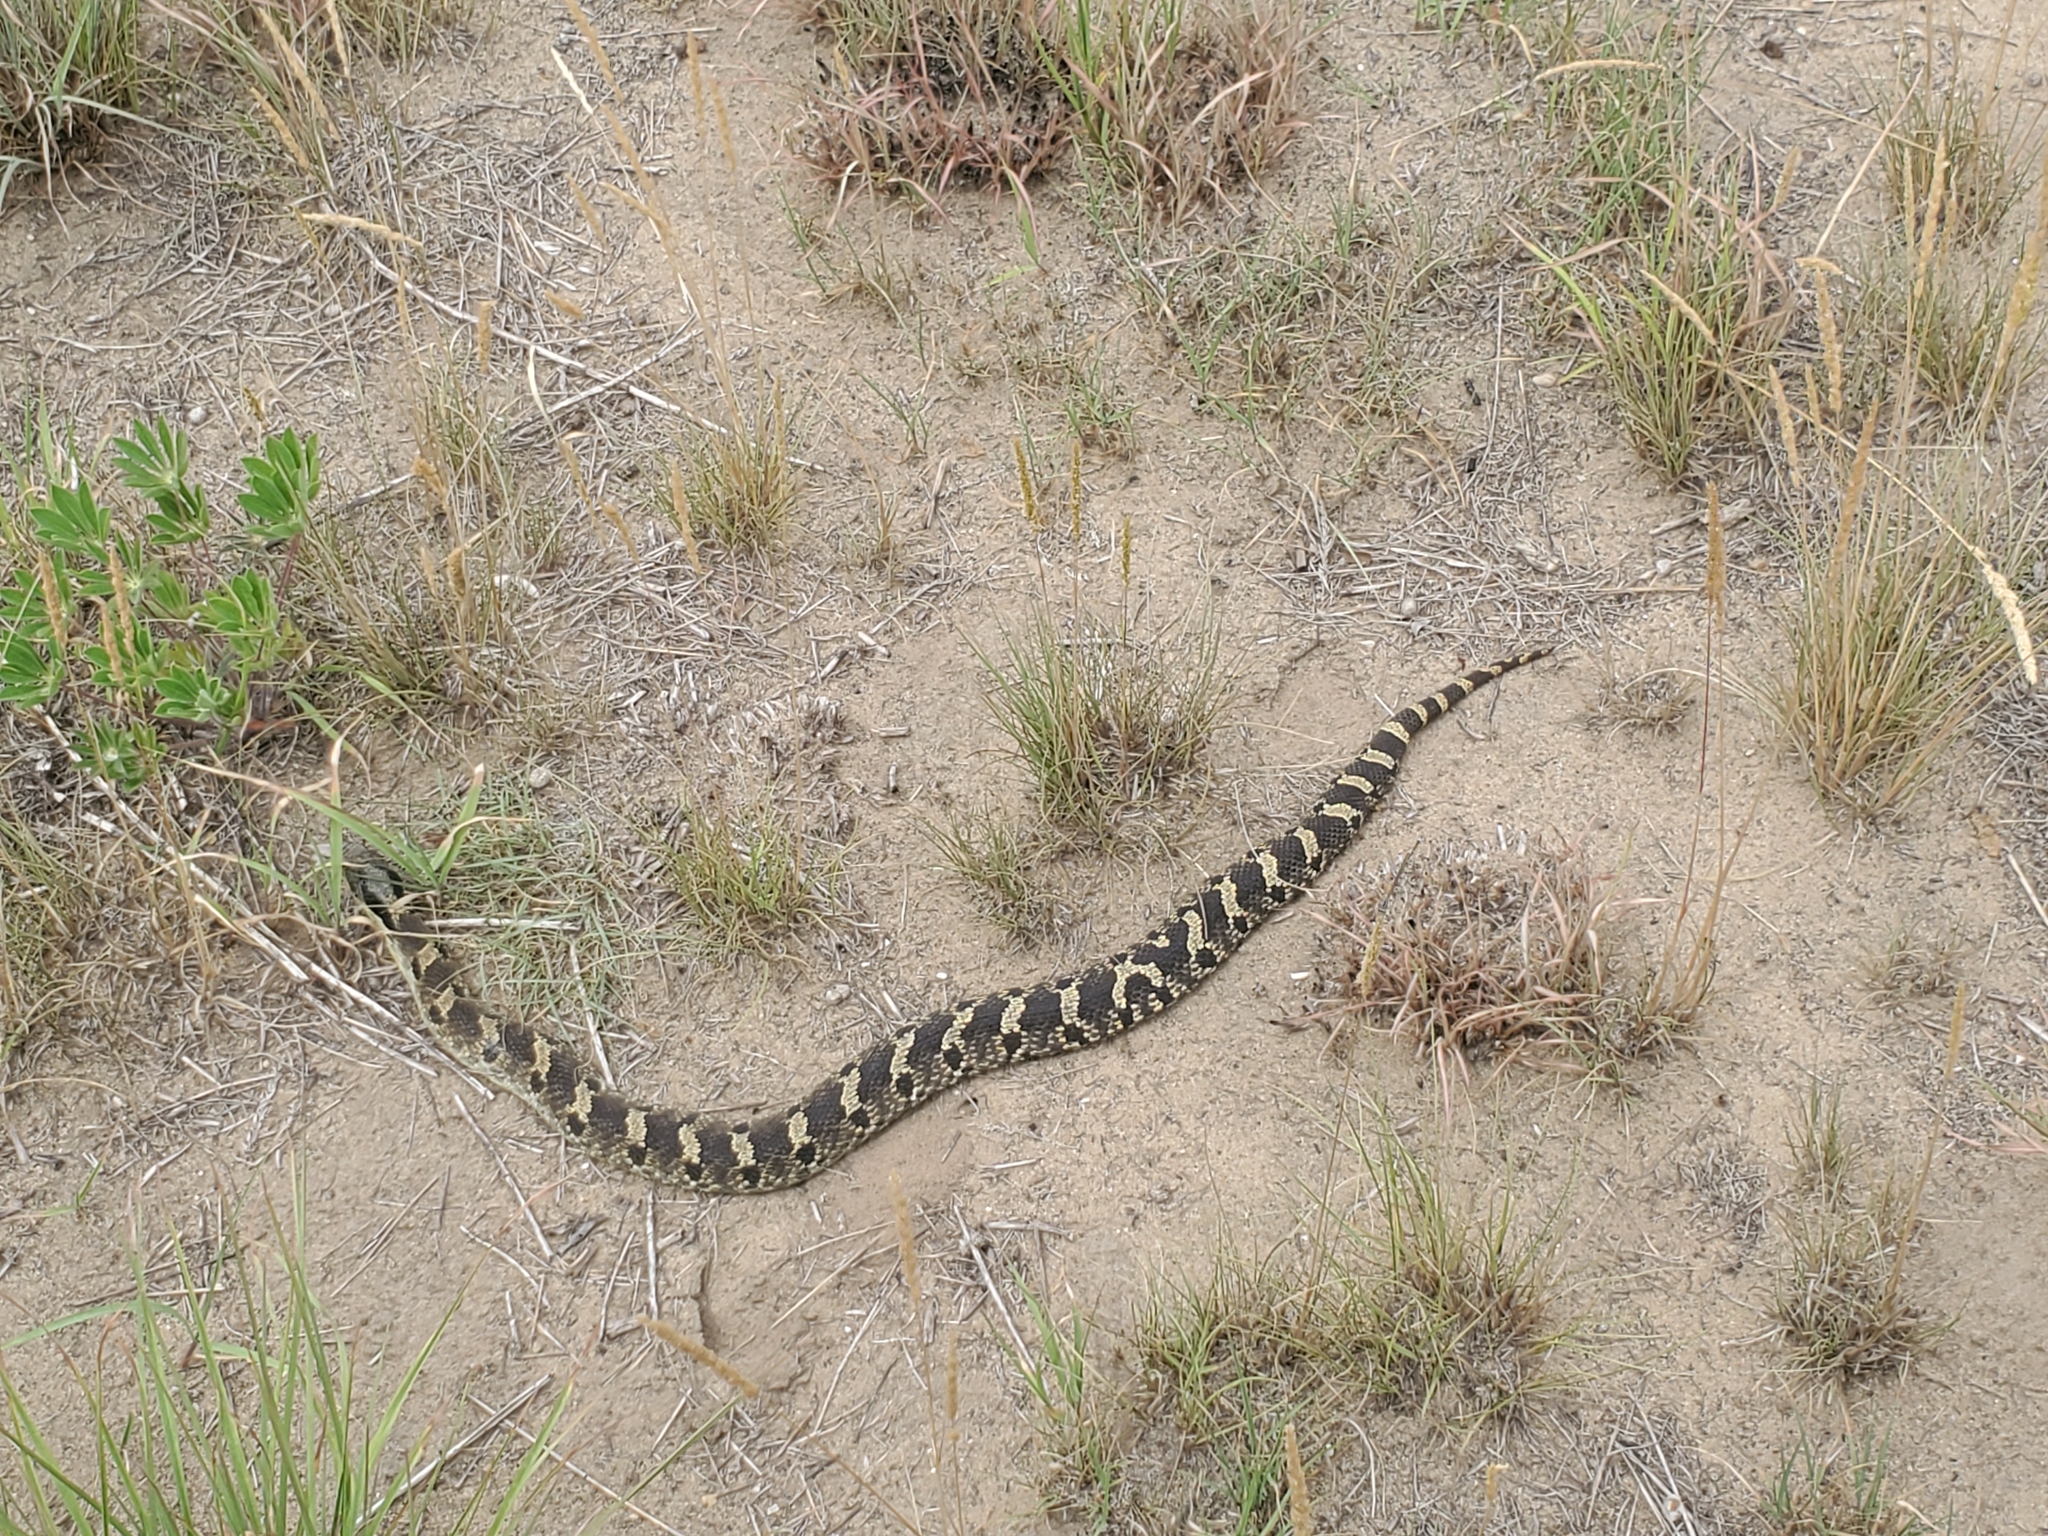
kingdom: Animalia
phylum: Chordata
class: Squamata
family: Colubridae
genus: Heterodon
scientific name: Heterodon platirhinos
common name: Eastern hognose snake
